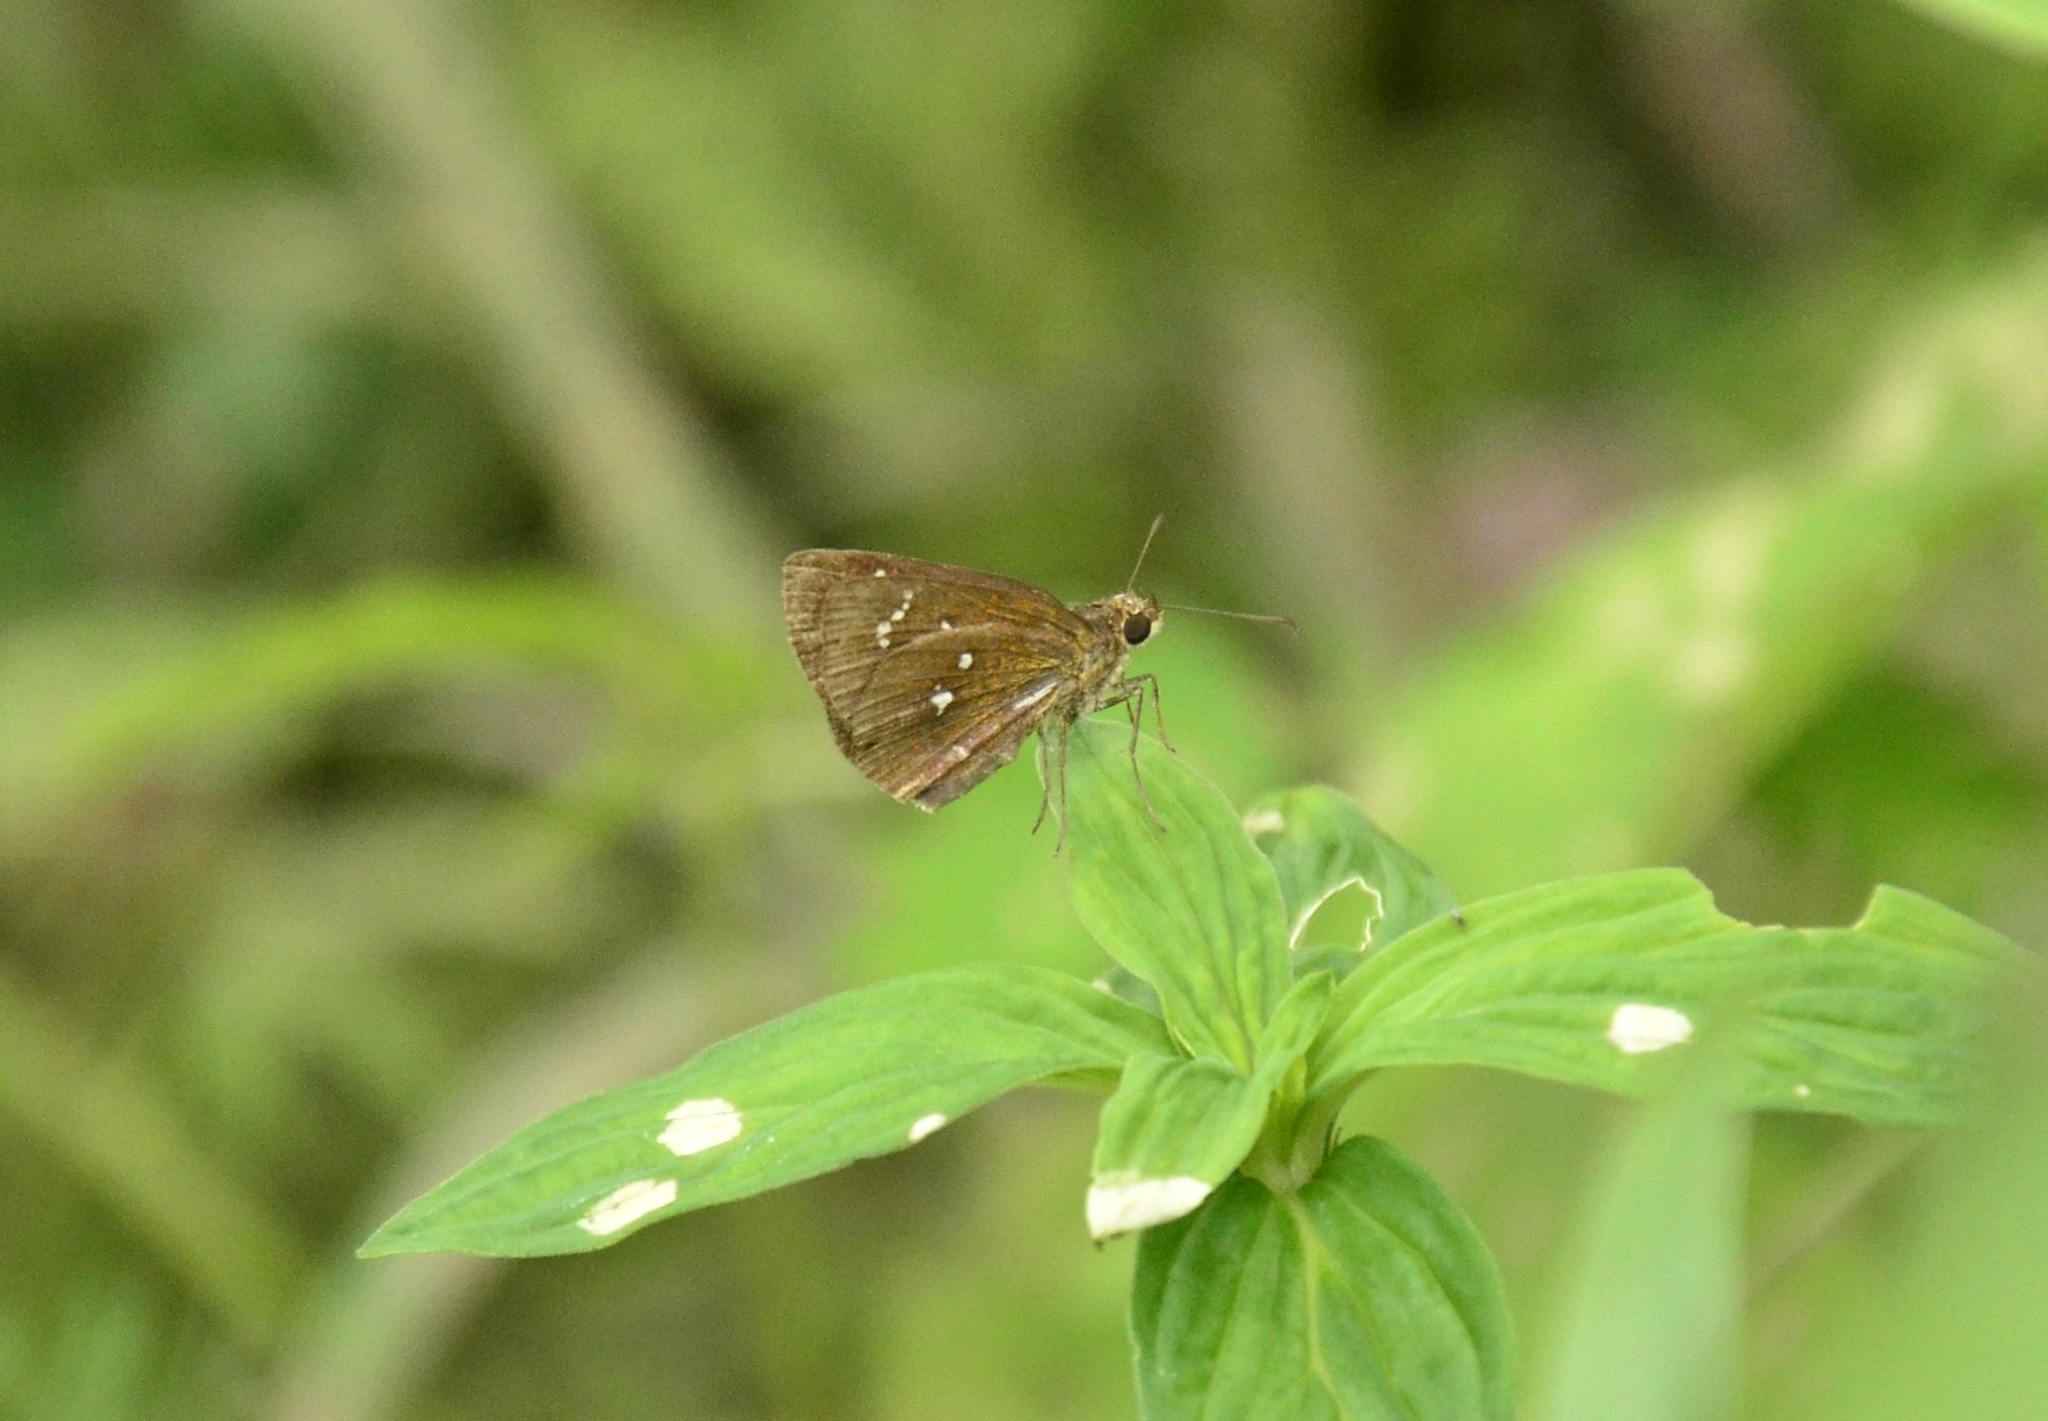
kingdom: Animalia
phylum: Arthropoda
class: Insecta
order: Lepidoptera
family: Hesperiidae
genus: Iambrix
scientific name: Iambrix salsala
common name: Chestnut bob
